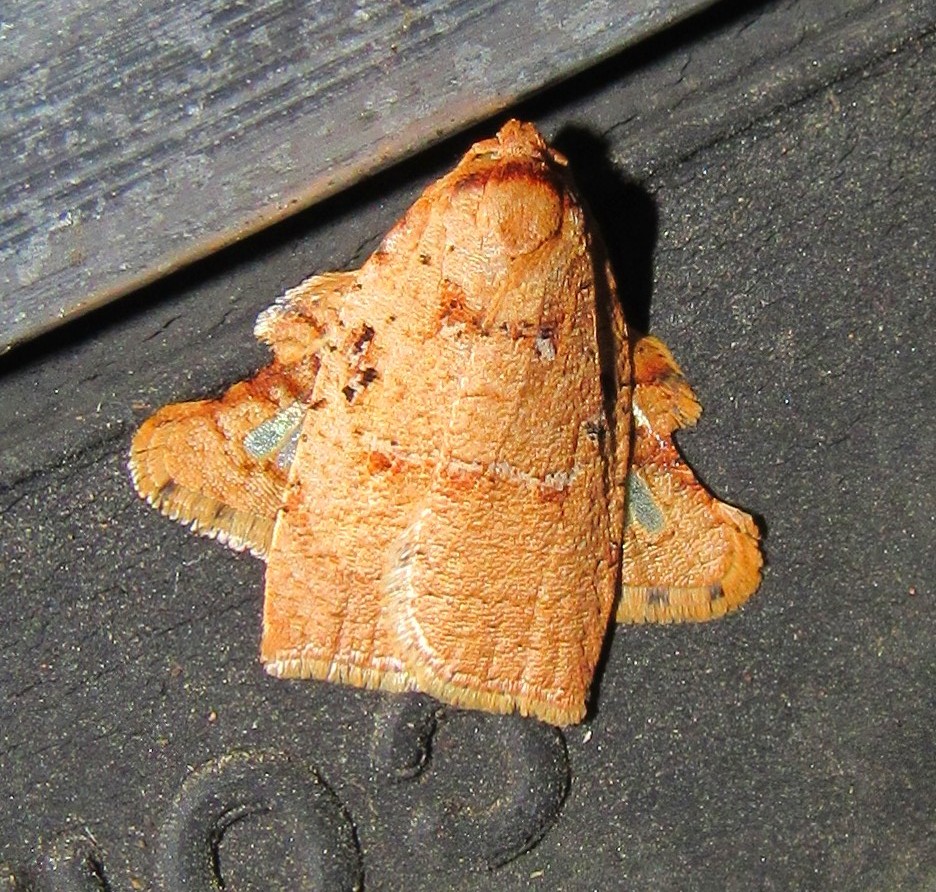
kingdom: Animalia
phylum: Arthropoda
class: Insecta
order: Lepidoptera
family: Tortricidae
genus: Amorbia
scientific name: Amorbia rectangularis
